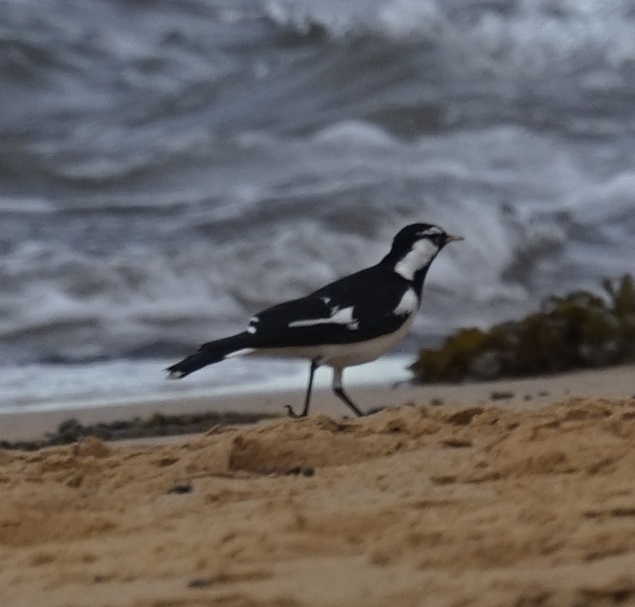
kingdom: Animalia
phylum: Chordata
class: Aves
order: Passeriformes
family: Monarchidae
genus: Grallina
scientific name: Grallina cyanoleuca
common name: Magpie-lark
